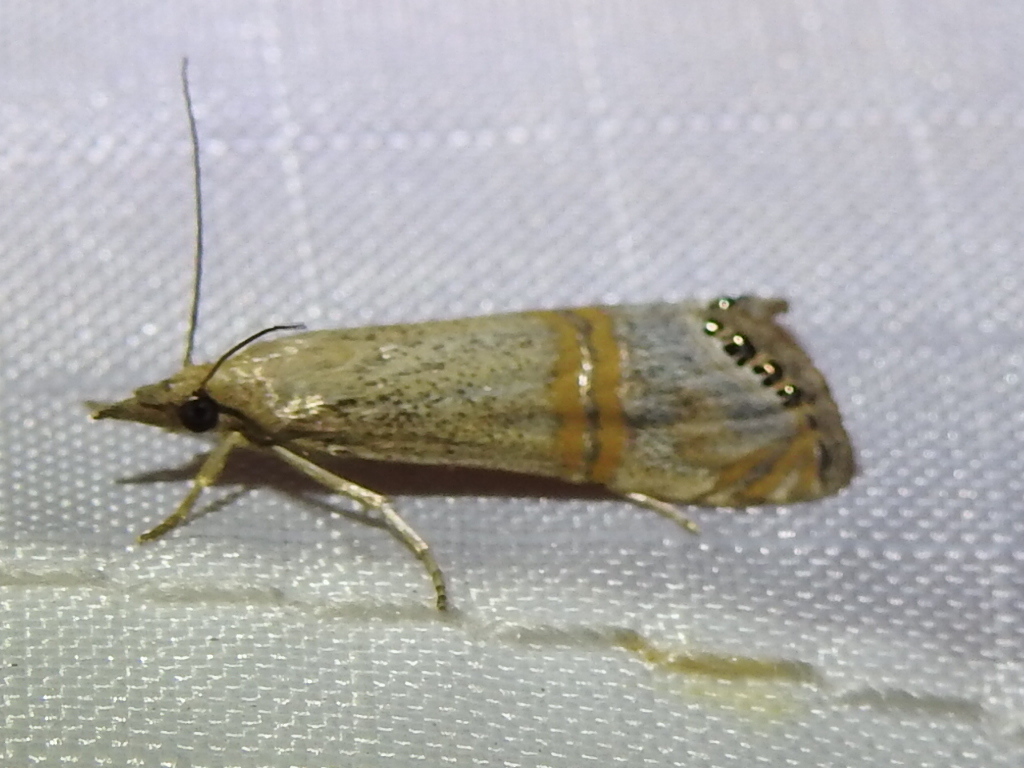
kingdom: Animalia
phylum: Arthropoda
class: Insecta
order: Lepidoptera
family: Crambidae
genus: Euchromius
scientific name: Euchromius ocellea
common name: Necklace veneer moth
